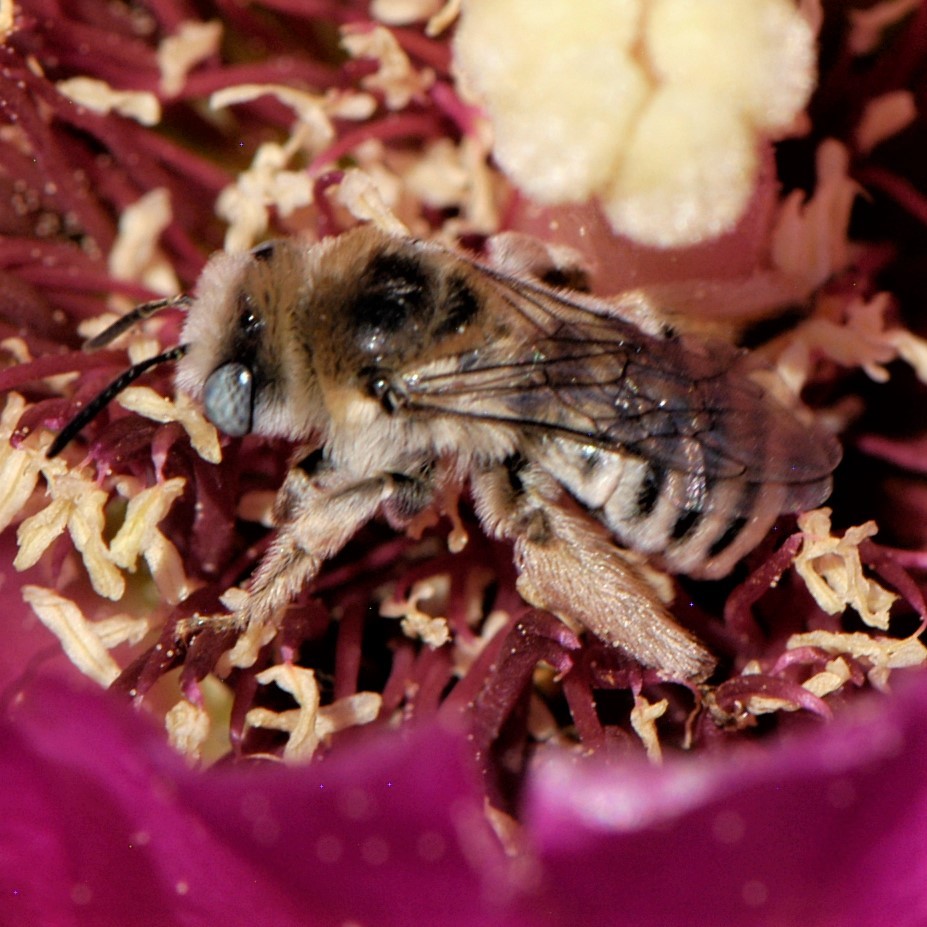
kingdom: Animalia
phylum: Arthropoda
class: Insecta
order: Hymenoptera
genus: Eumelissodes
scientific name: Eumelissodes
